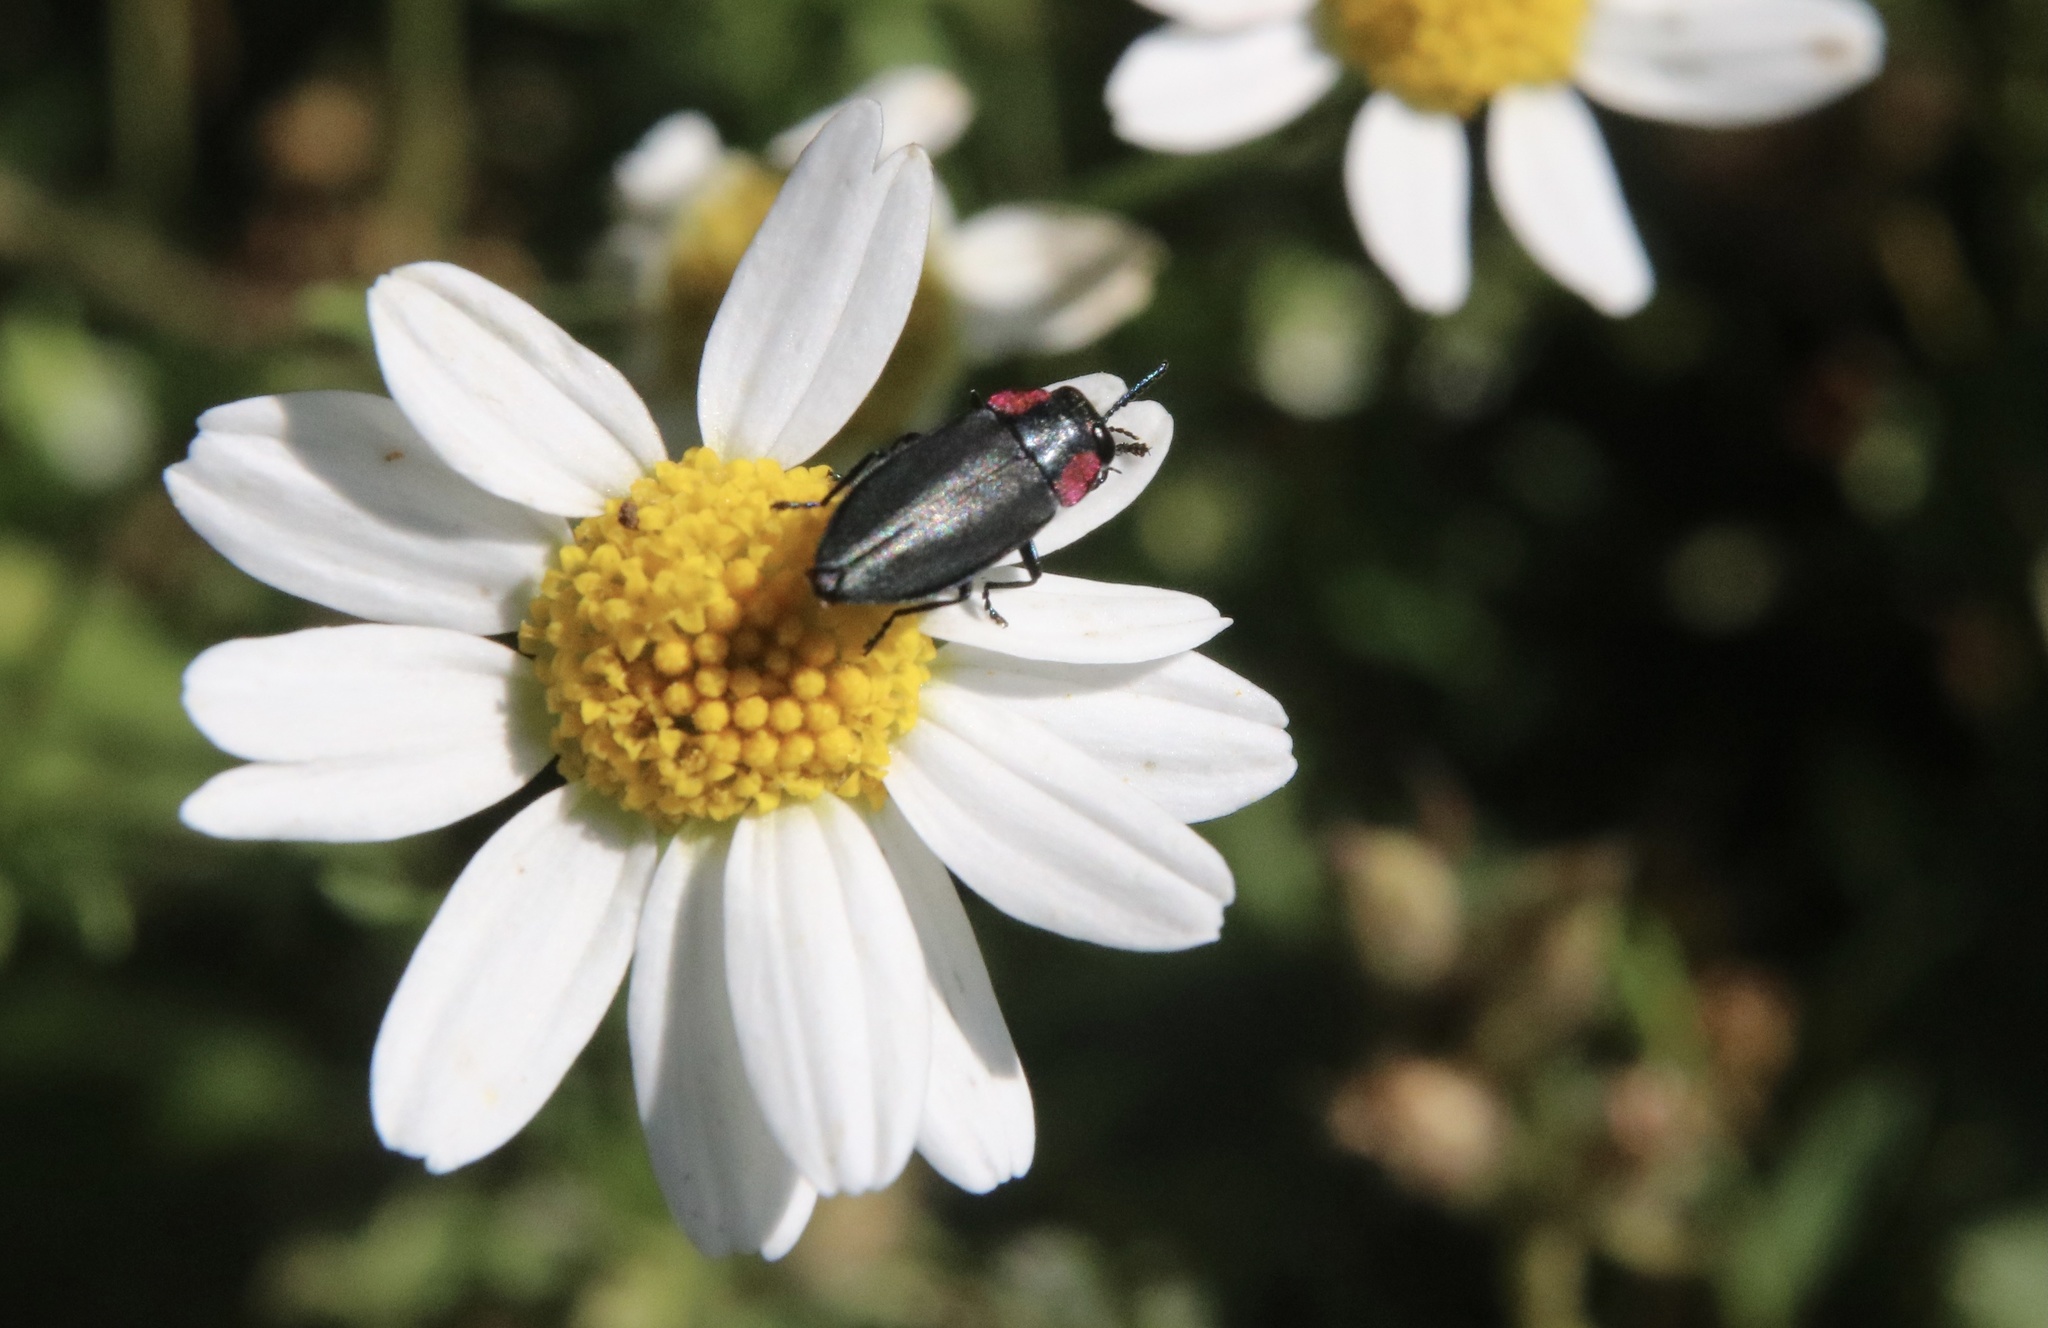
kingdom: Animalia
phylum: Arthropoda
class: Insecta
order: Coleoptera
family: Buprestidae
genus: Romanophora
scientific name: Romanophora verecunda
